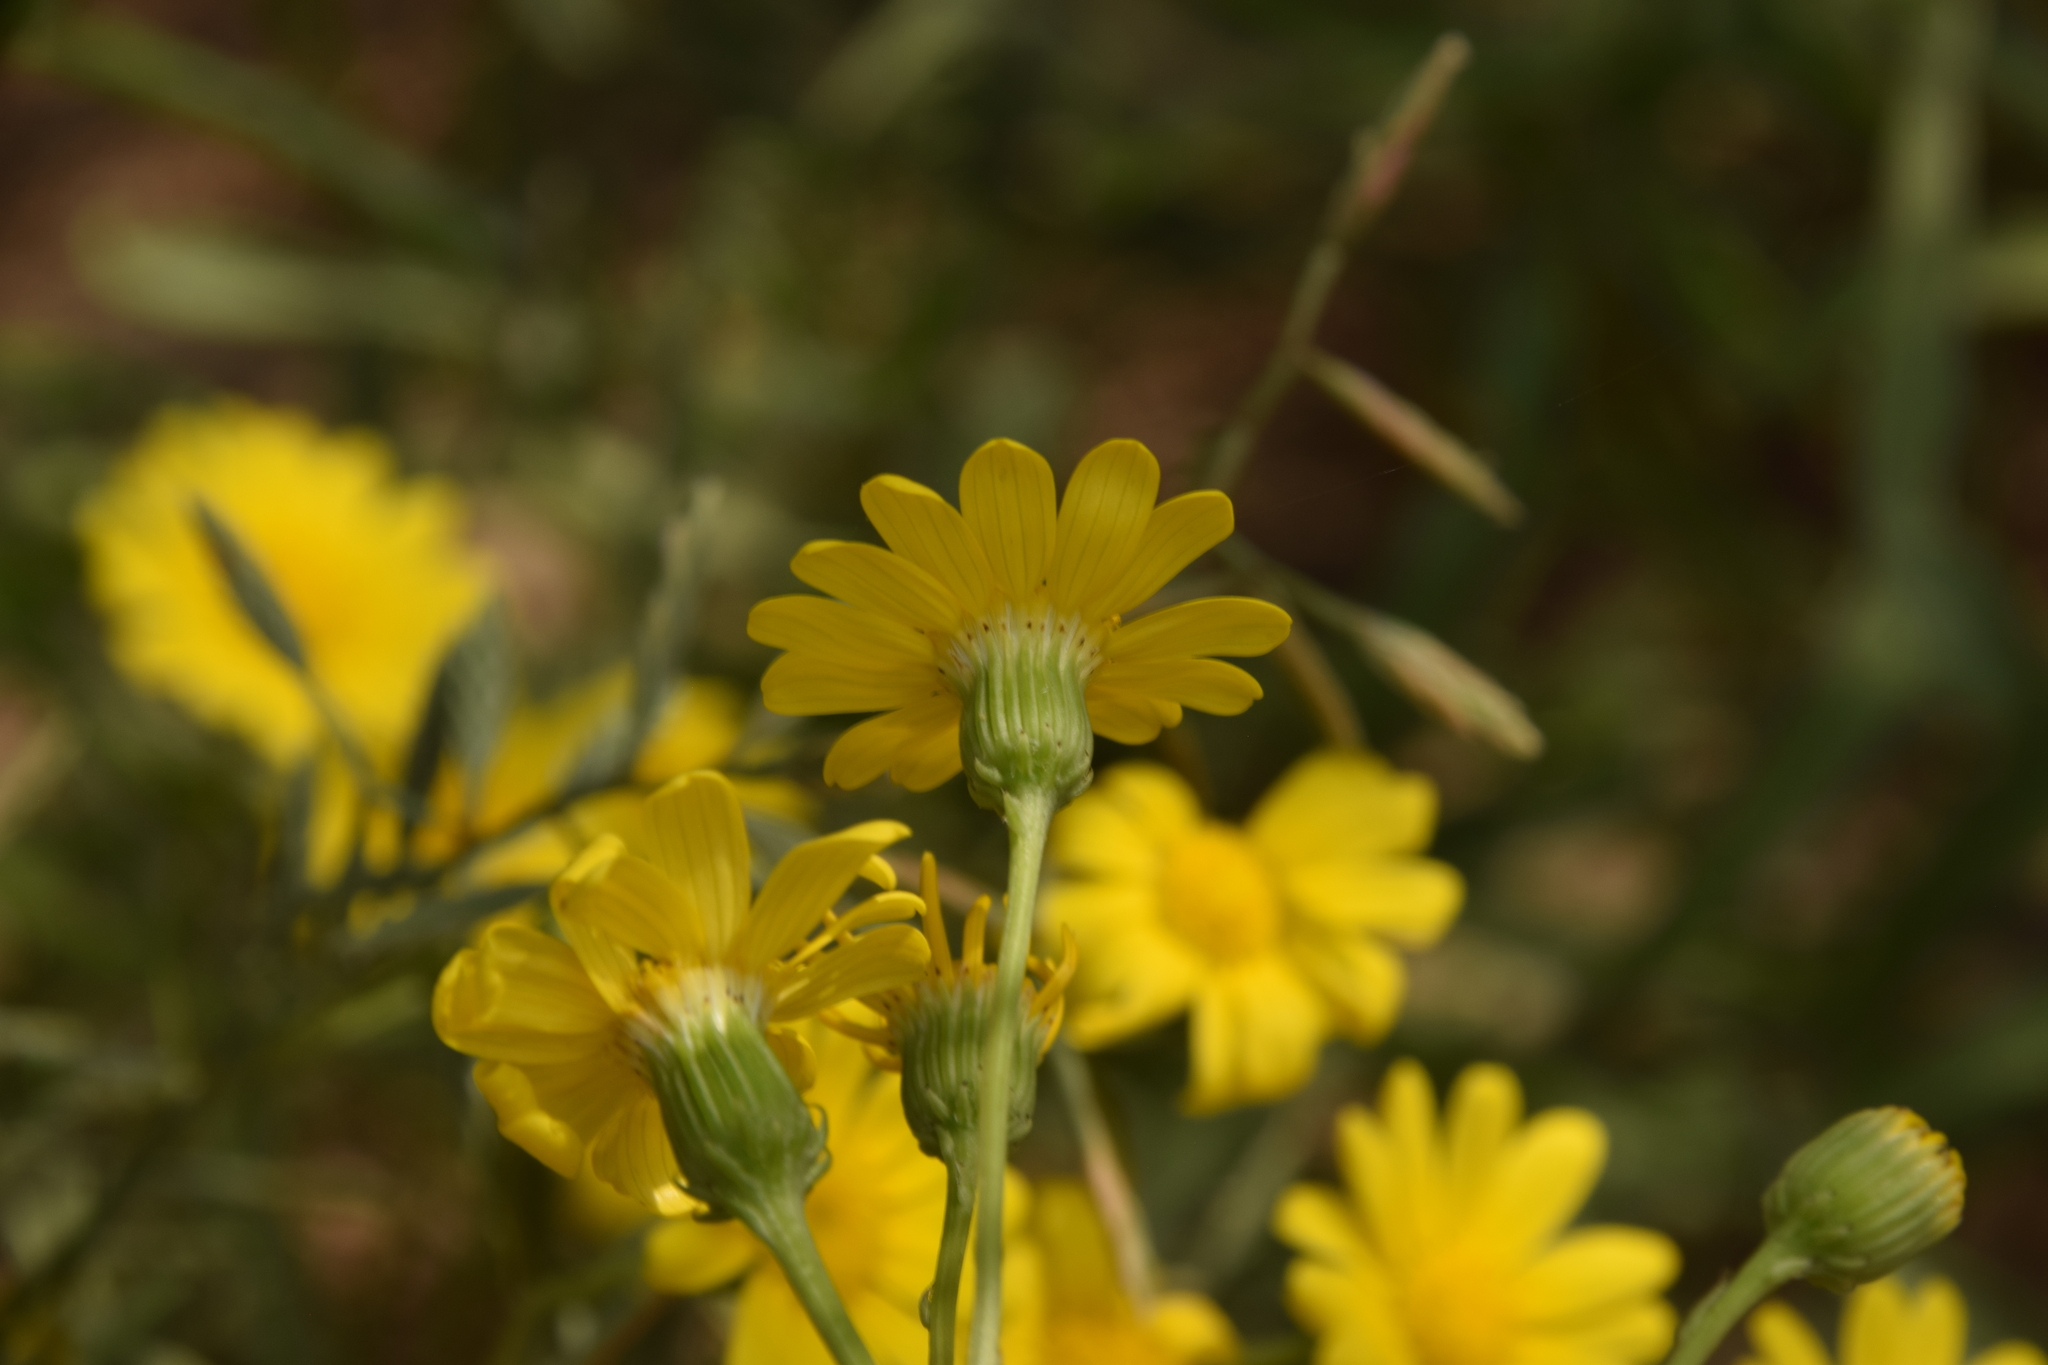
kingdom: Plantae
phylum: Tracheophyta
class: Magnoliopsida
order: Asterales
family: Asteraceae
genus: Senecio
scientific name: Senecio glaucus
